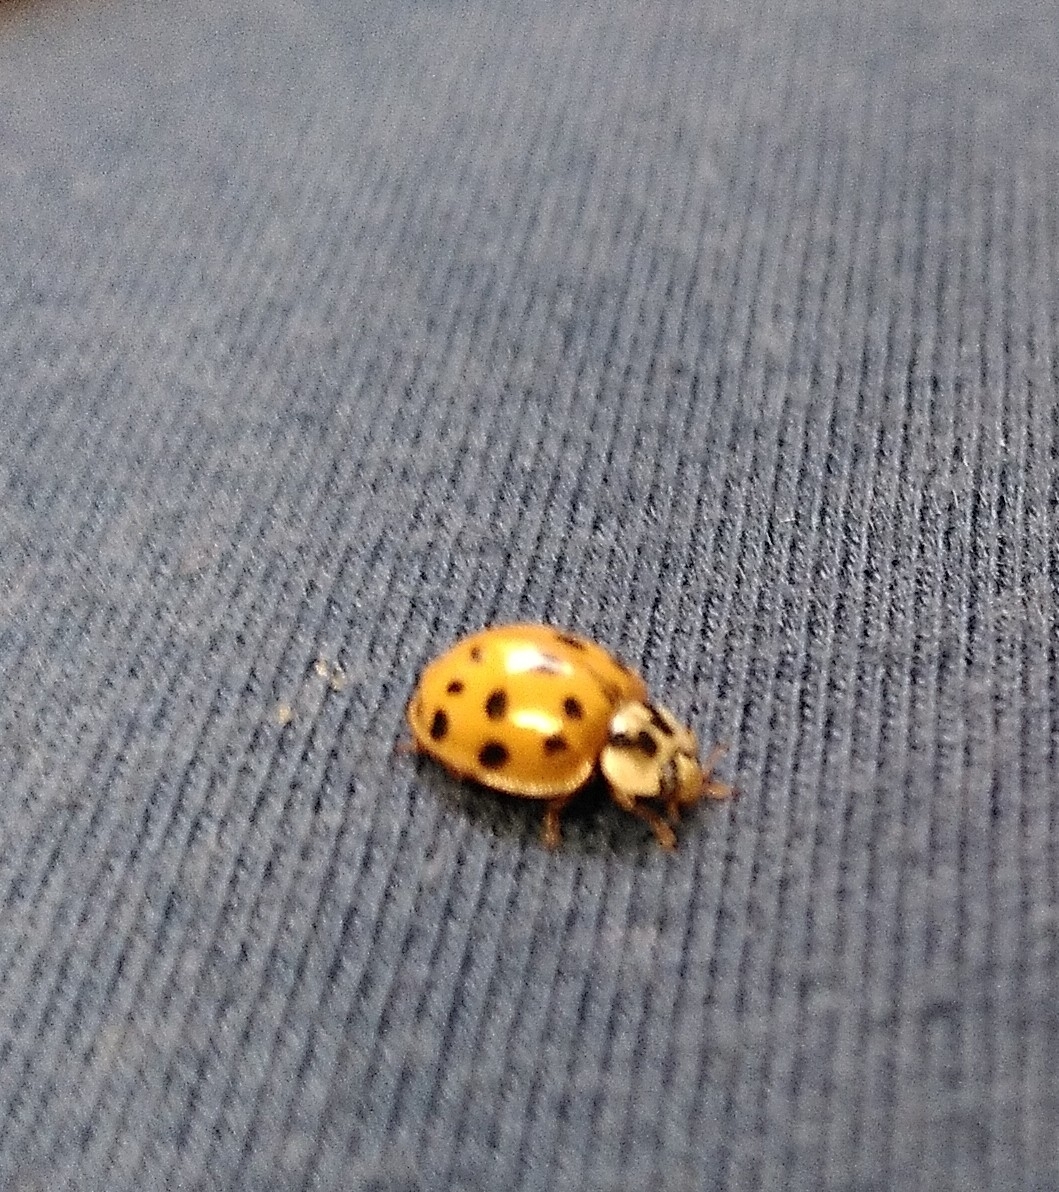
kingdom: Animalia
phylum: Arthropoda
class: Insecta
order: Coleoptera
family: Coccinellidae
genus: Harmonia
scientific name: Harmonia axyridis
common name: Harlequin ladybird
